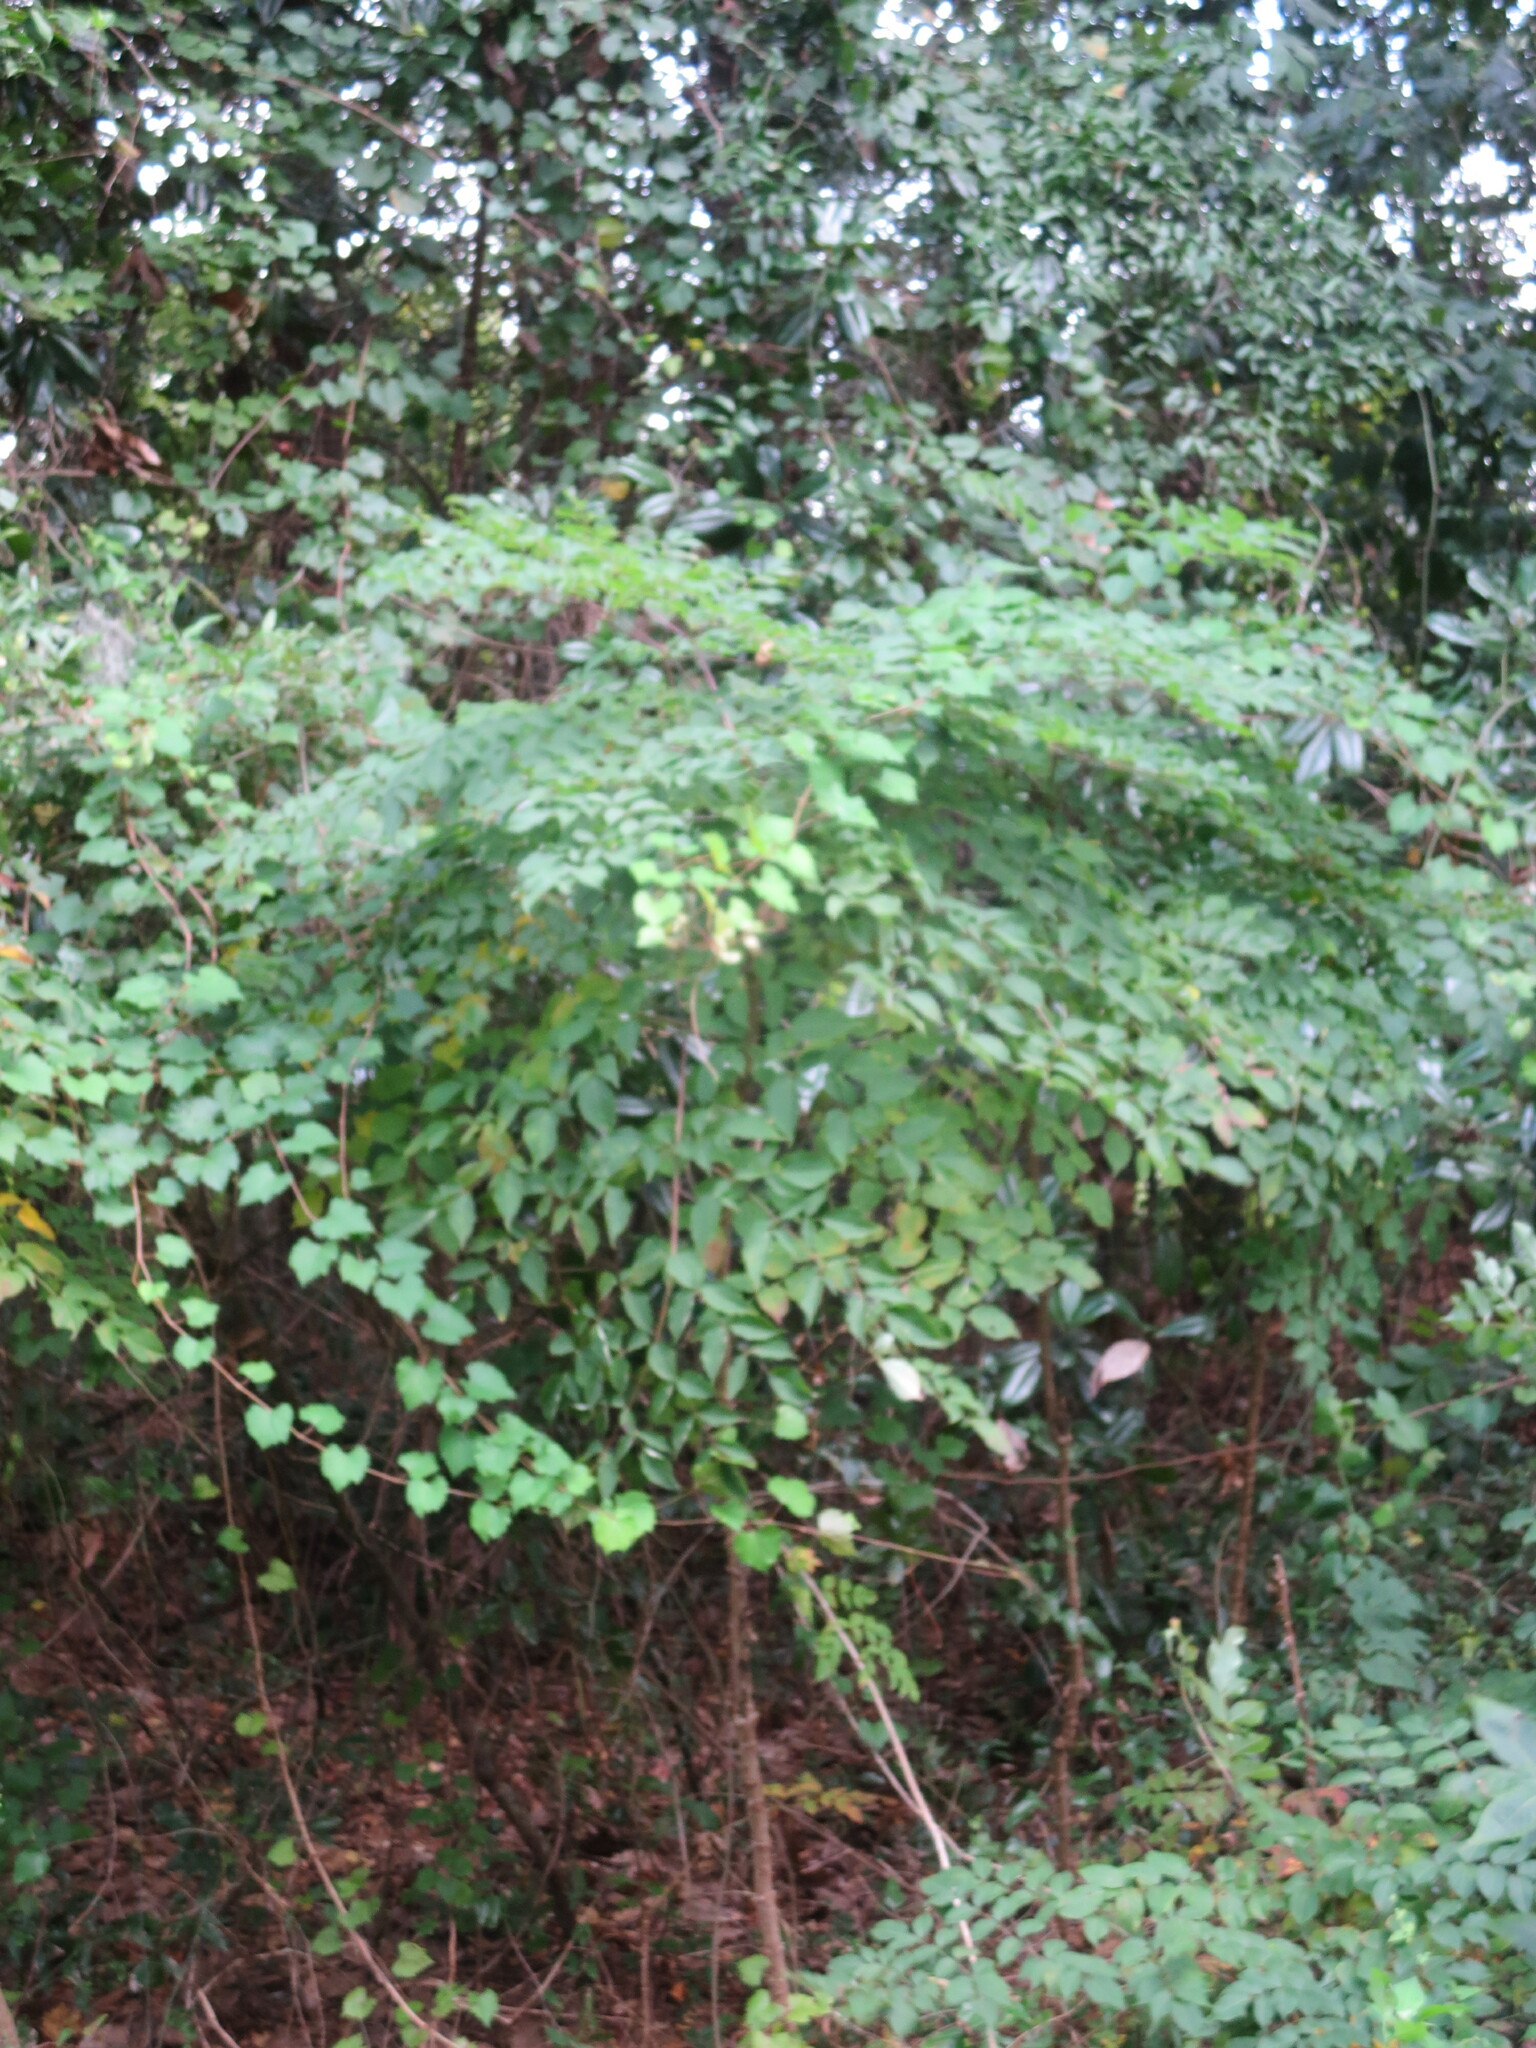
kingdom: Plantae
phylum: Tracheophyta
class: Magnoliopsida
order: Apiales
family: Araliaceae
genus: Aralia
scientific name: Aralia spinosa
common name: Hercules'-club
